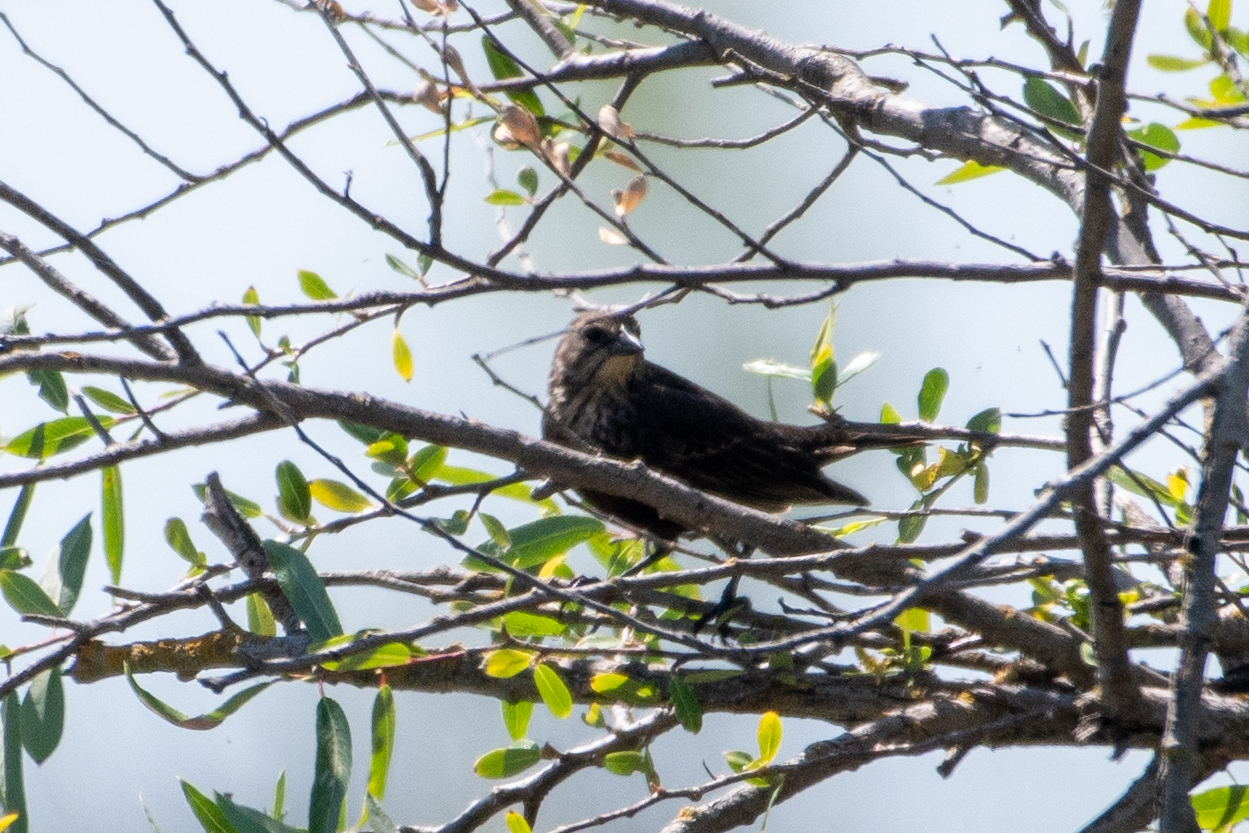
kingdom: Animalia
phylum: Chordata
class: Aves
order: Passeriformes
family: Icteridae
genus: Agelaius
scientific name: Agelaius phoeniceus
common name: Red-winged blackbird
